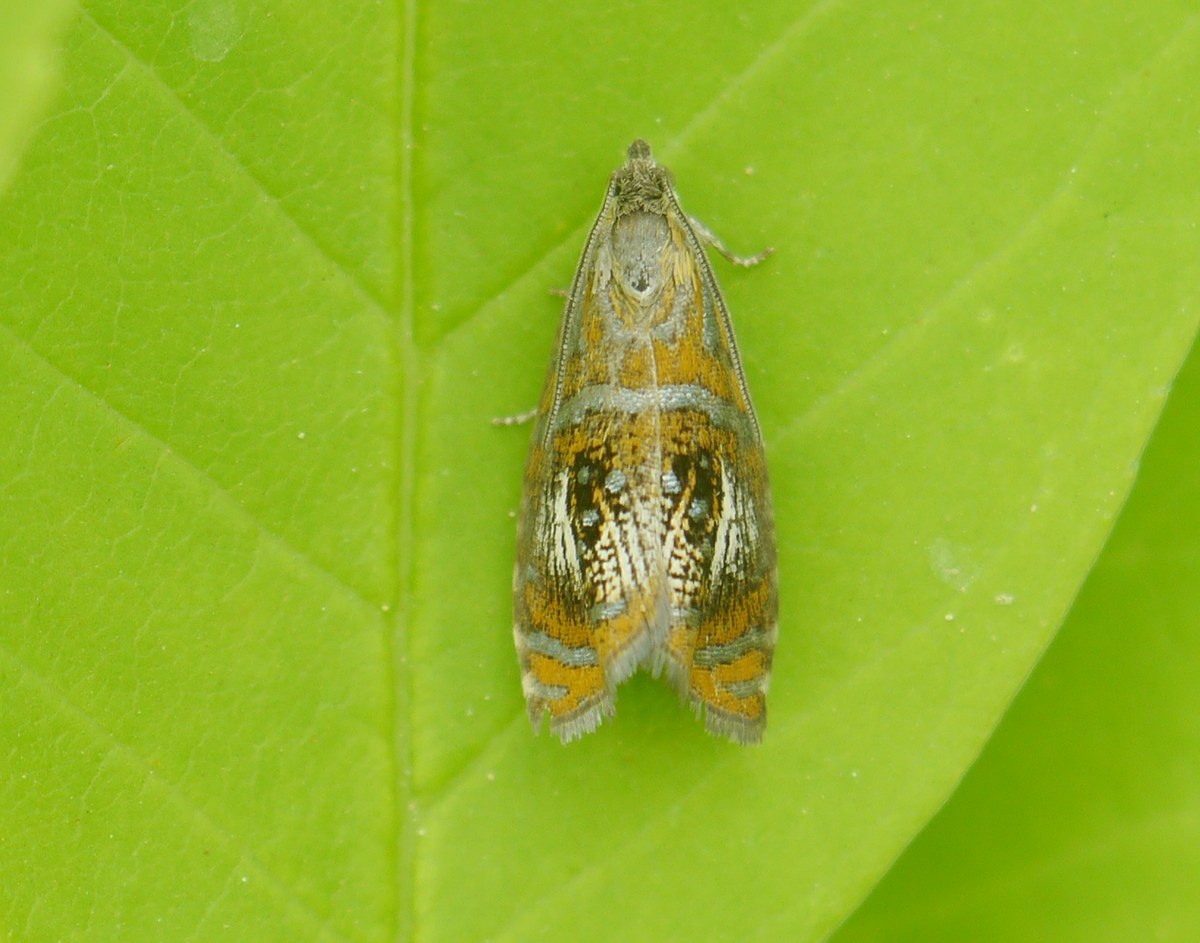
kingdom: Animalia
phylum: Arthropoda
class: Insecta
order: Lepidoptera
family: Tortricidae
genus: Olethreutes
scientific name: Olethreutes arcuella
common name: Arched marble
